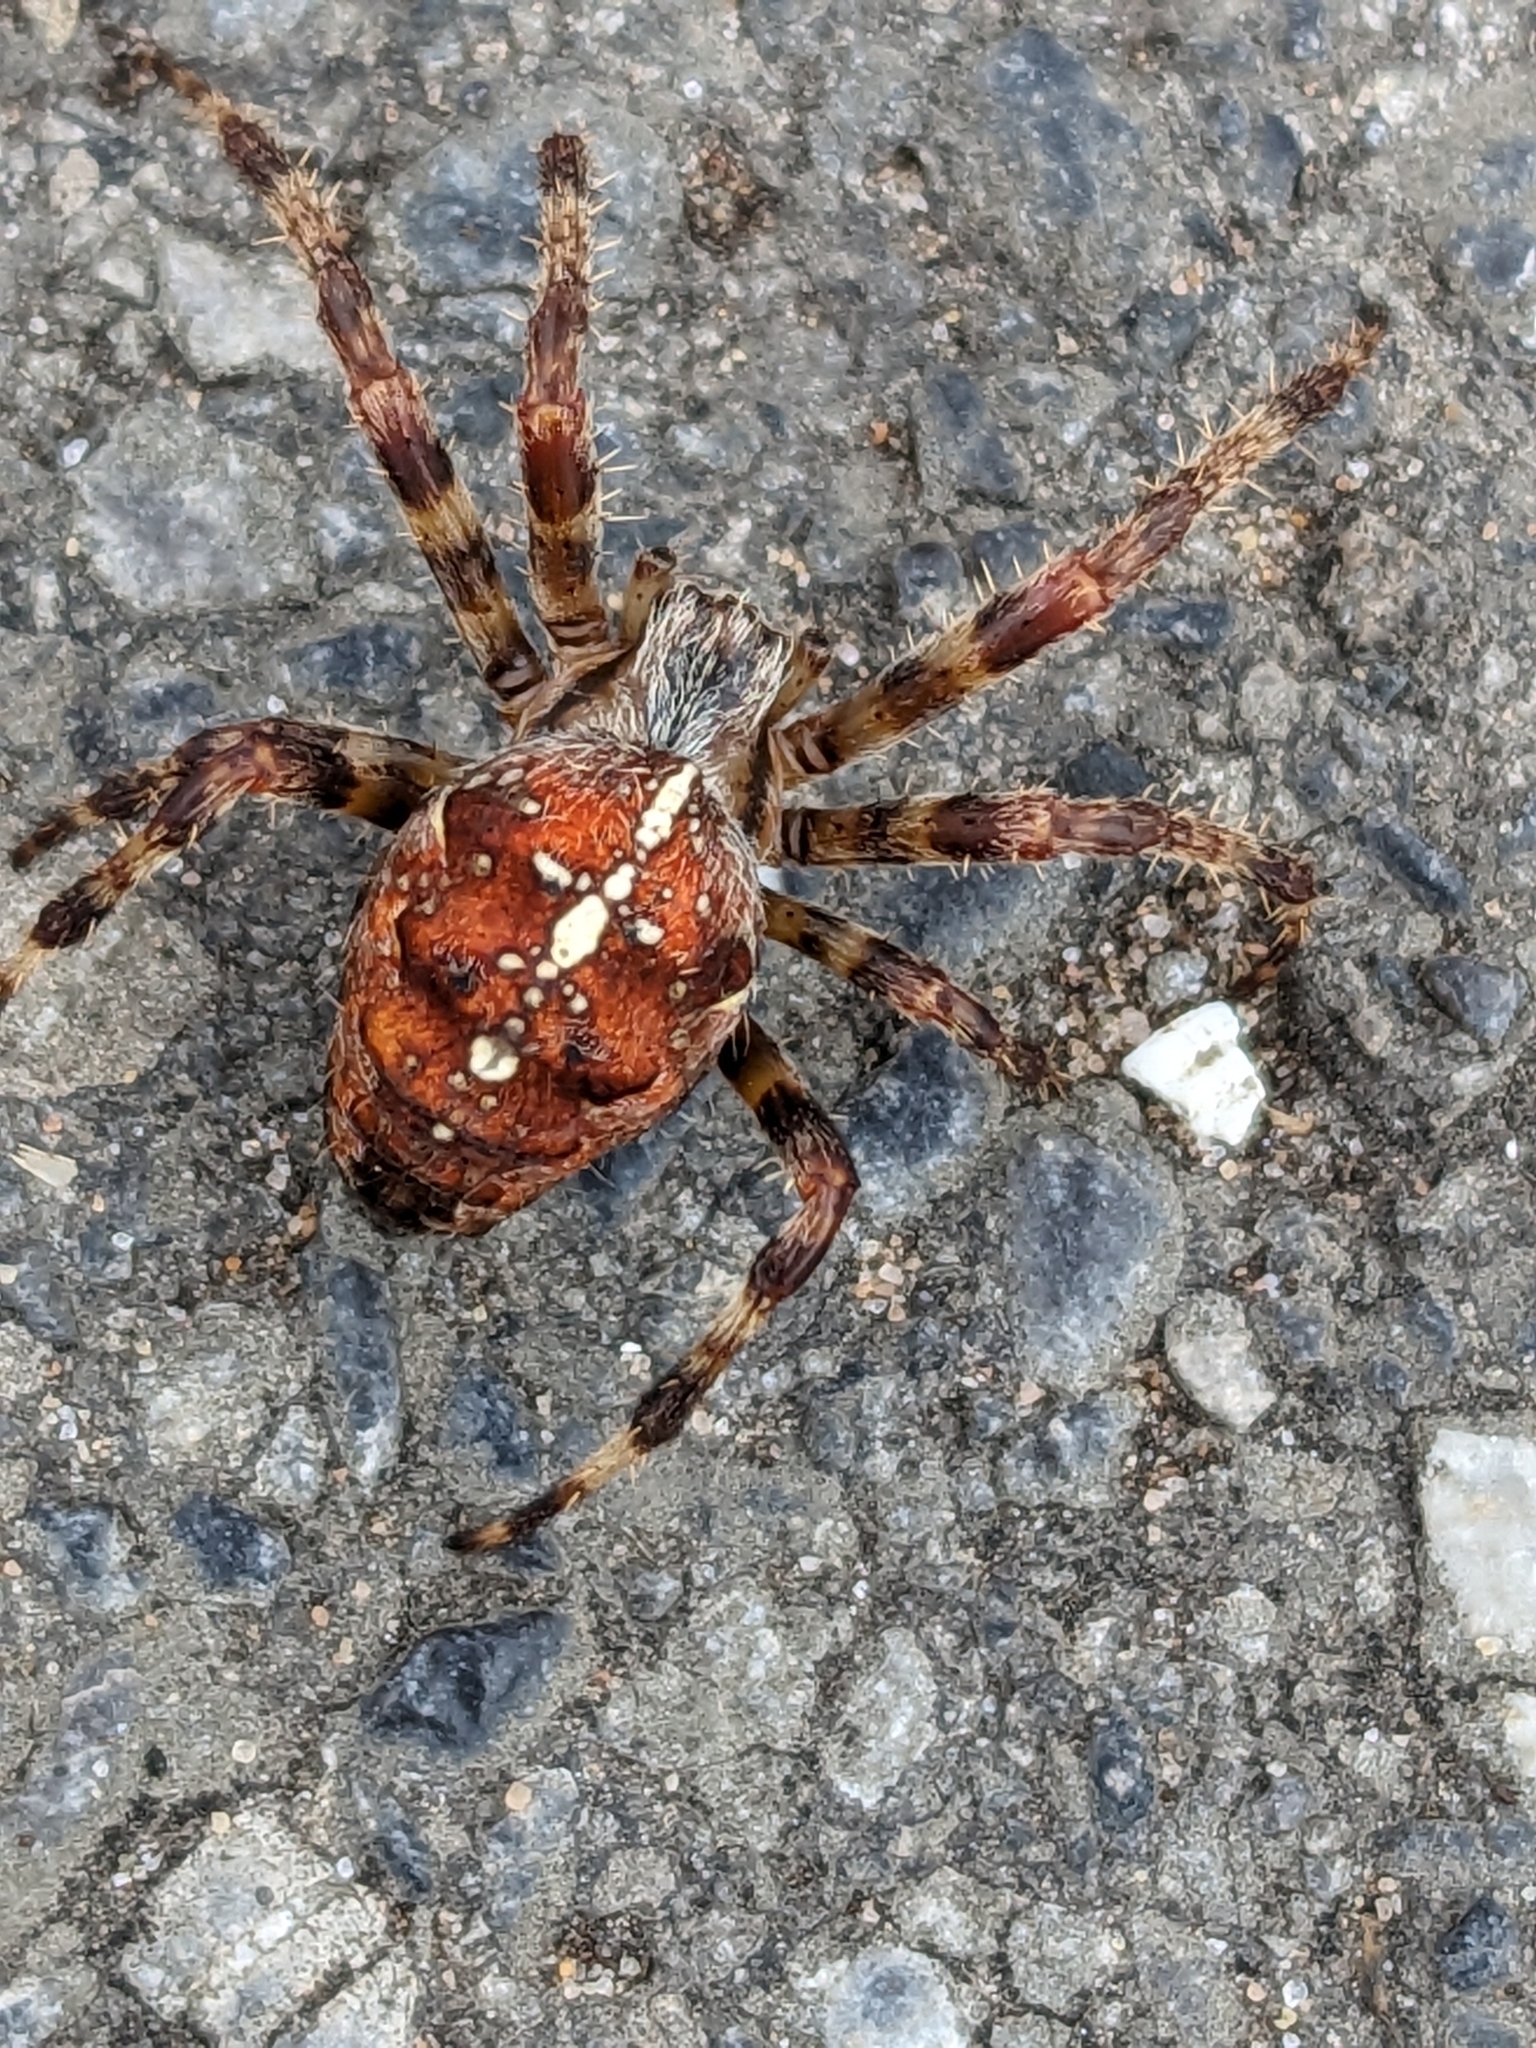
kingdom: Animalia
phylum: Arthropoda
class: Arachnida
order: Araneae
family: Araneidae
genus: Araneus
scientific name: Araneus diadematus
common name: Cross orbweaver
